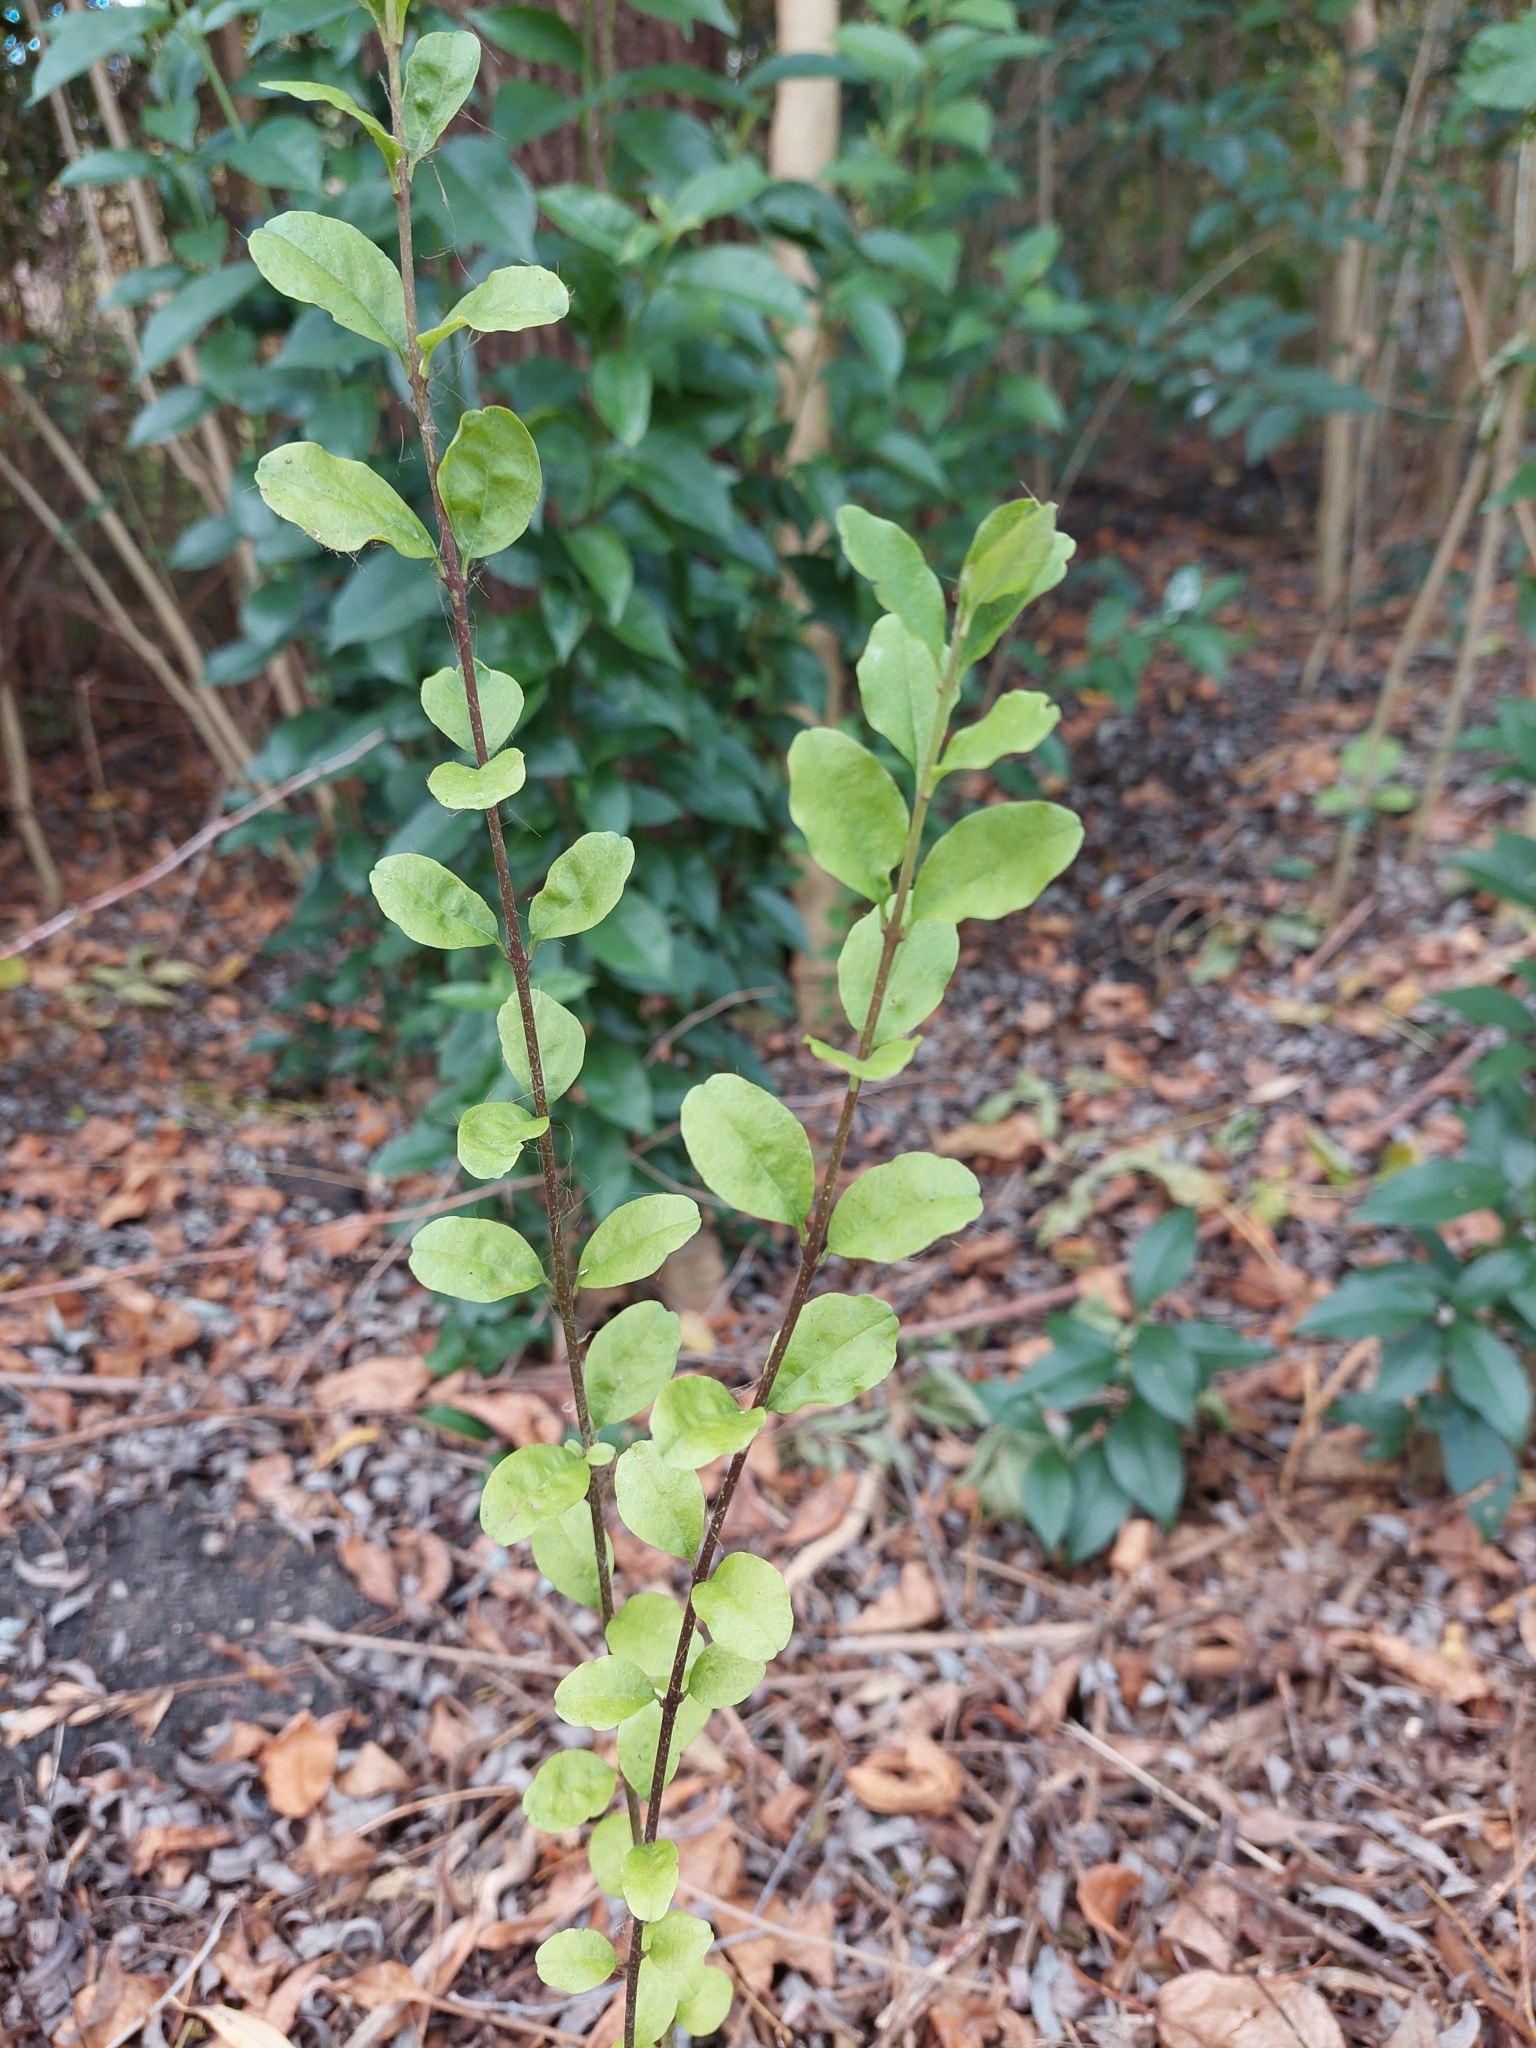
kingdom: Plantae
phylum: Tracheophyta
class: Magnoliopsida
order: Lamiales
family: Oleaceae
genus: Ligustrum
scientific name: Ligustrum sinense
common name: Chinese privet
